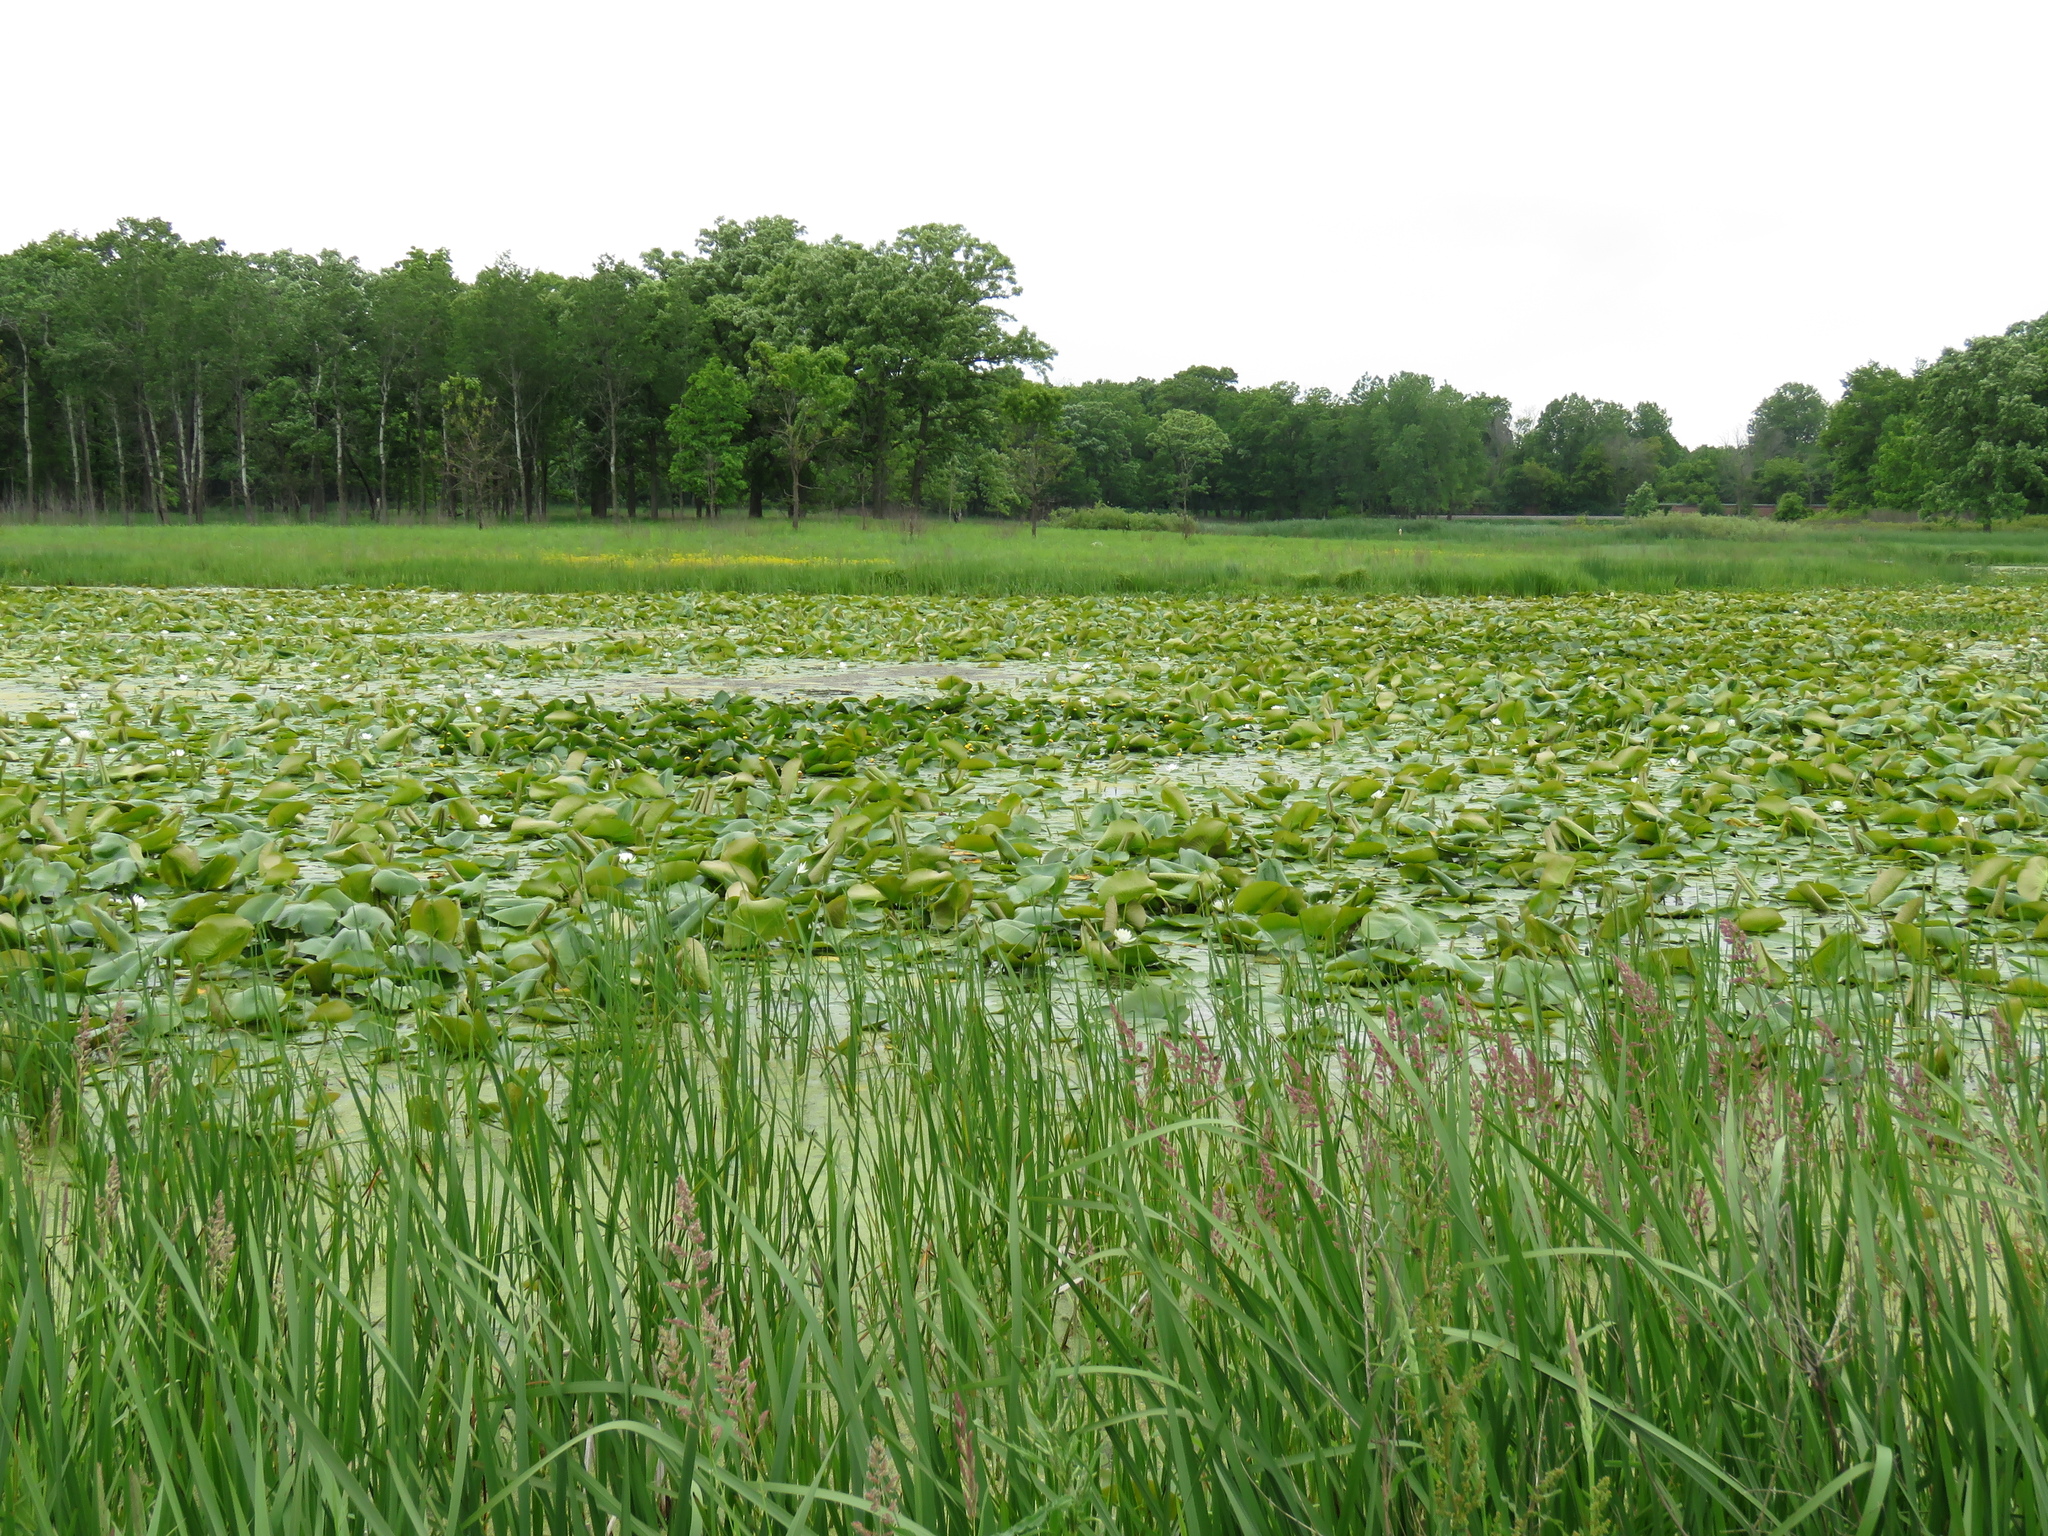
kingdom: Plantae
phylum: Tracheophyta
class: Magnoliopsida
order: Nymphaeales
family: Nymphaeaceae
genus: Nymphaea
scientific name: Nymphaea odorata
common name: Fragrant water-lily
